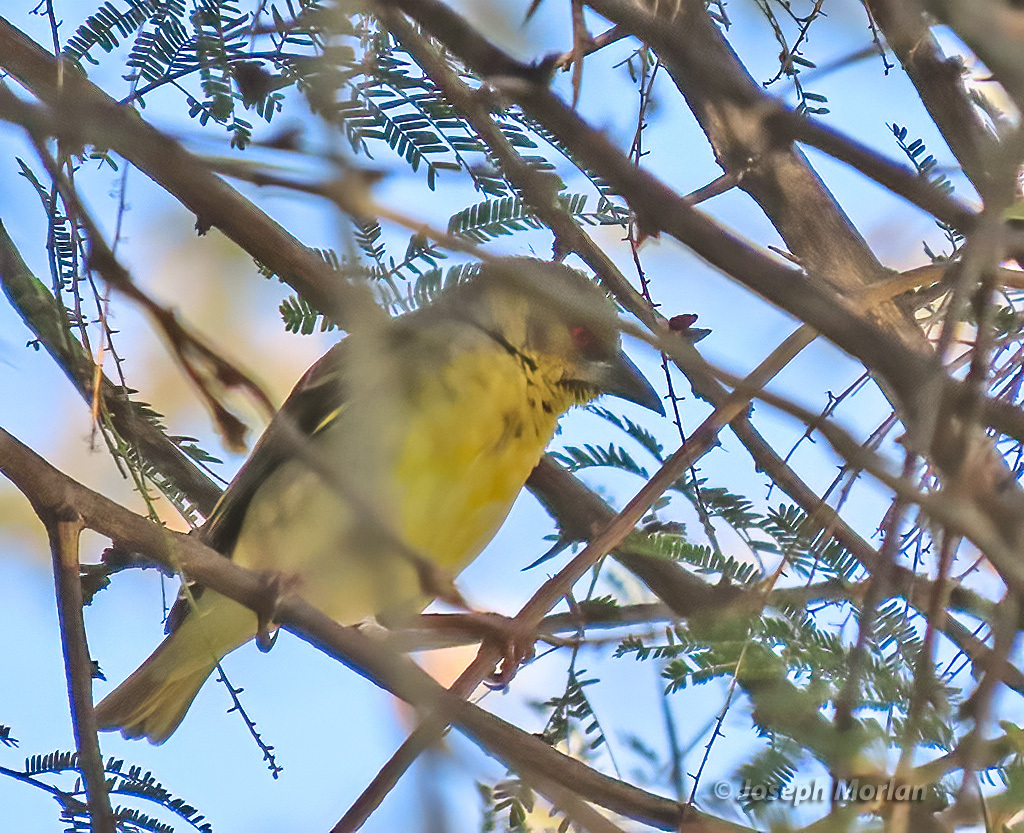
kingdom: Animalia
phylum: Chordata
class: Aves
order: Passeriformes
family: Ploceidae
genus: Ploceus
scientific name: Ploceus cucullatus
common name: Village weaver
